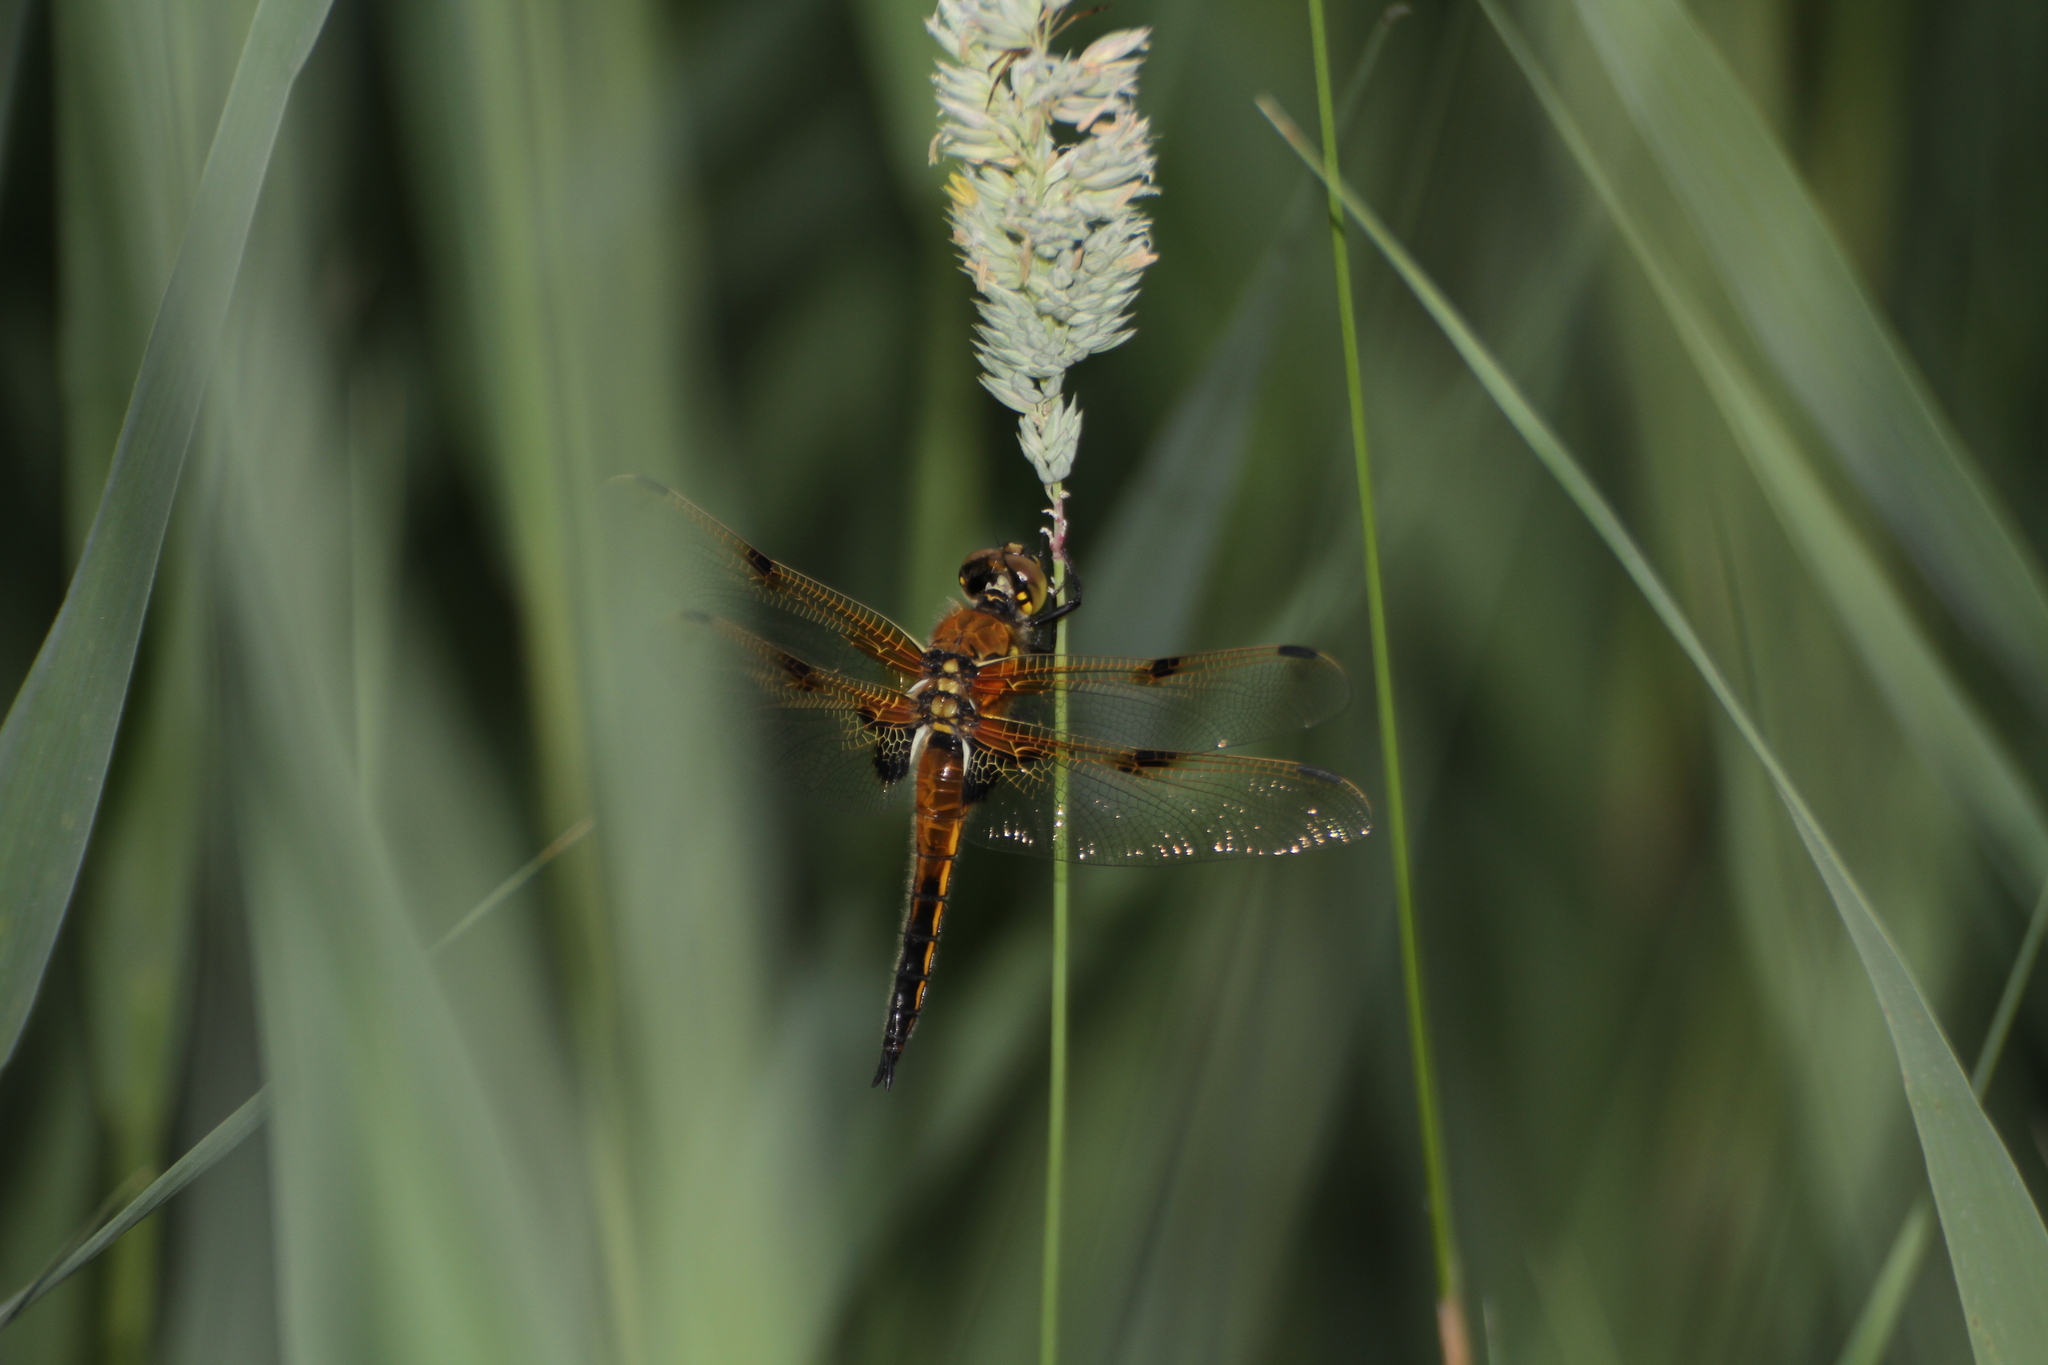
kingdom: Animalia
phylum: Arthropoda
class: Insecta
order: Odonata
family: Libellulidae
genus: Libellula
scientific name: Libellula quadrimaculata
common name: Four-spotted chaser
